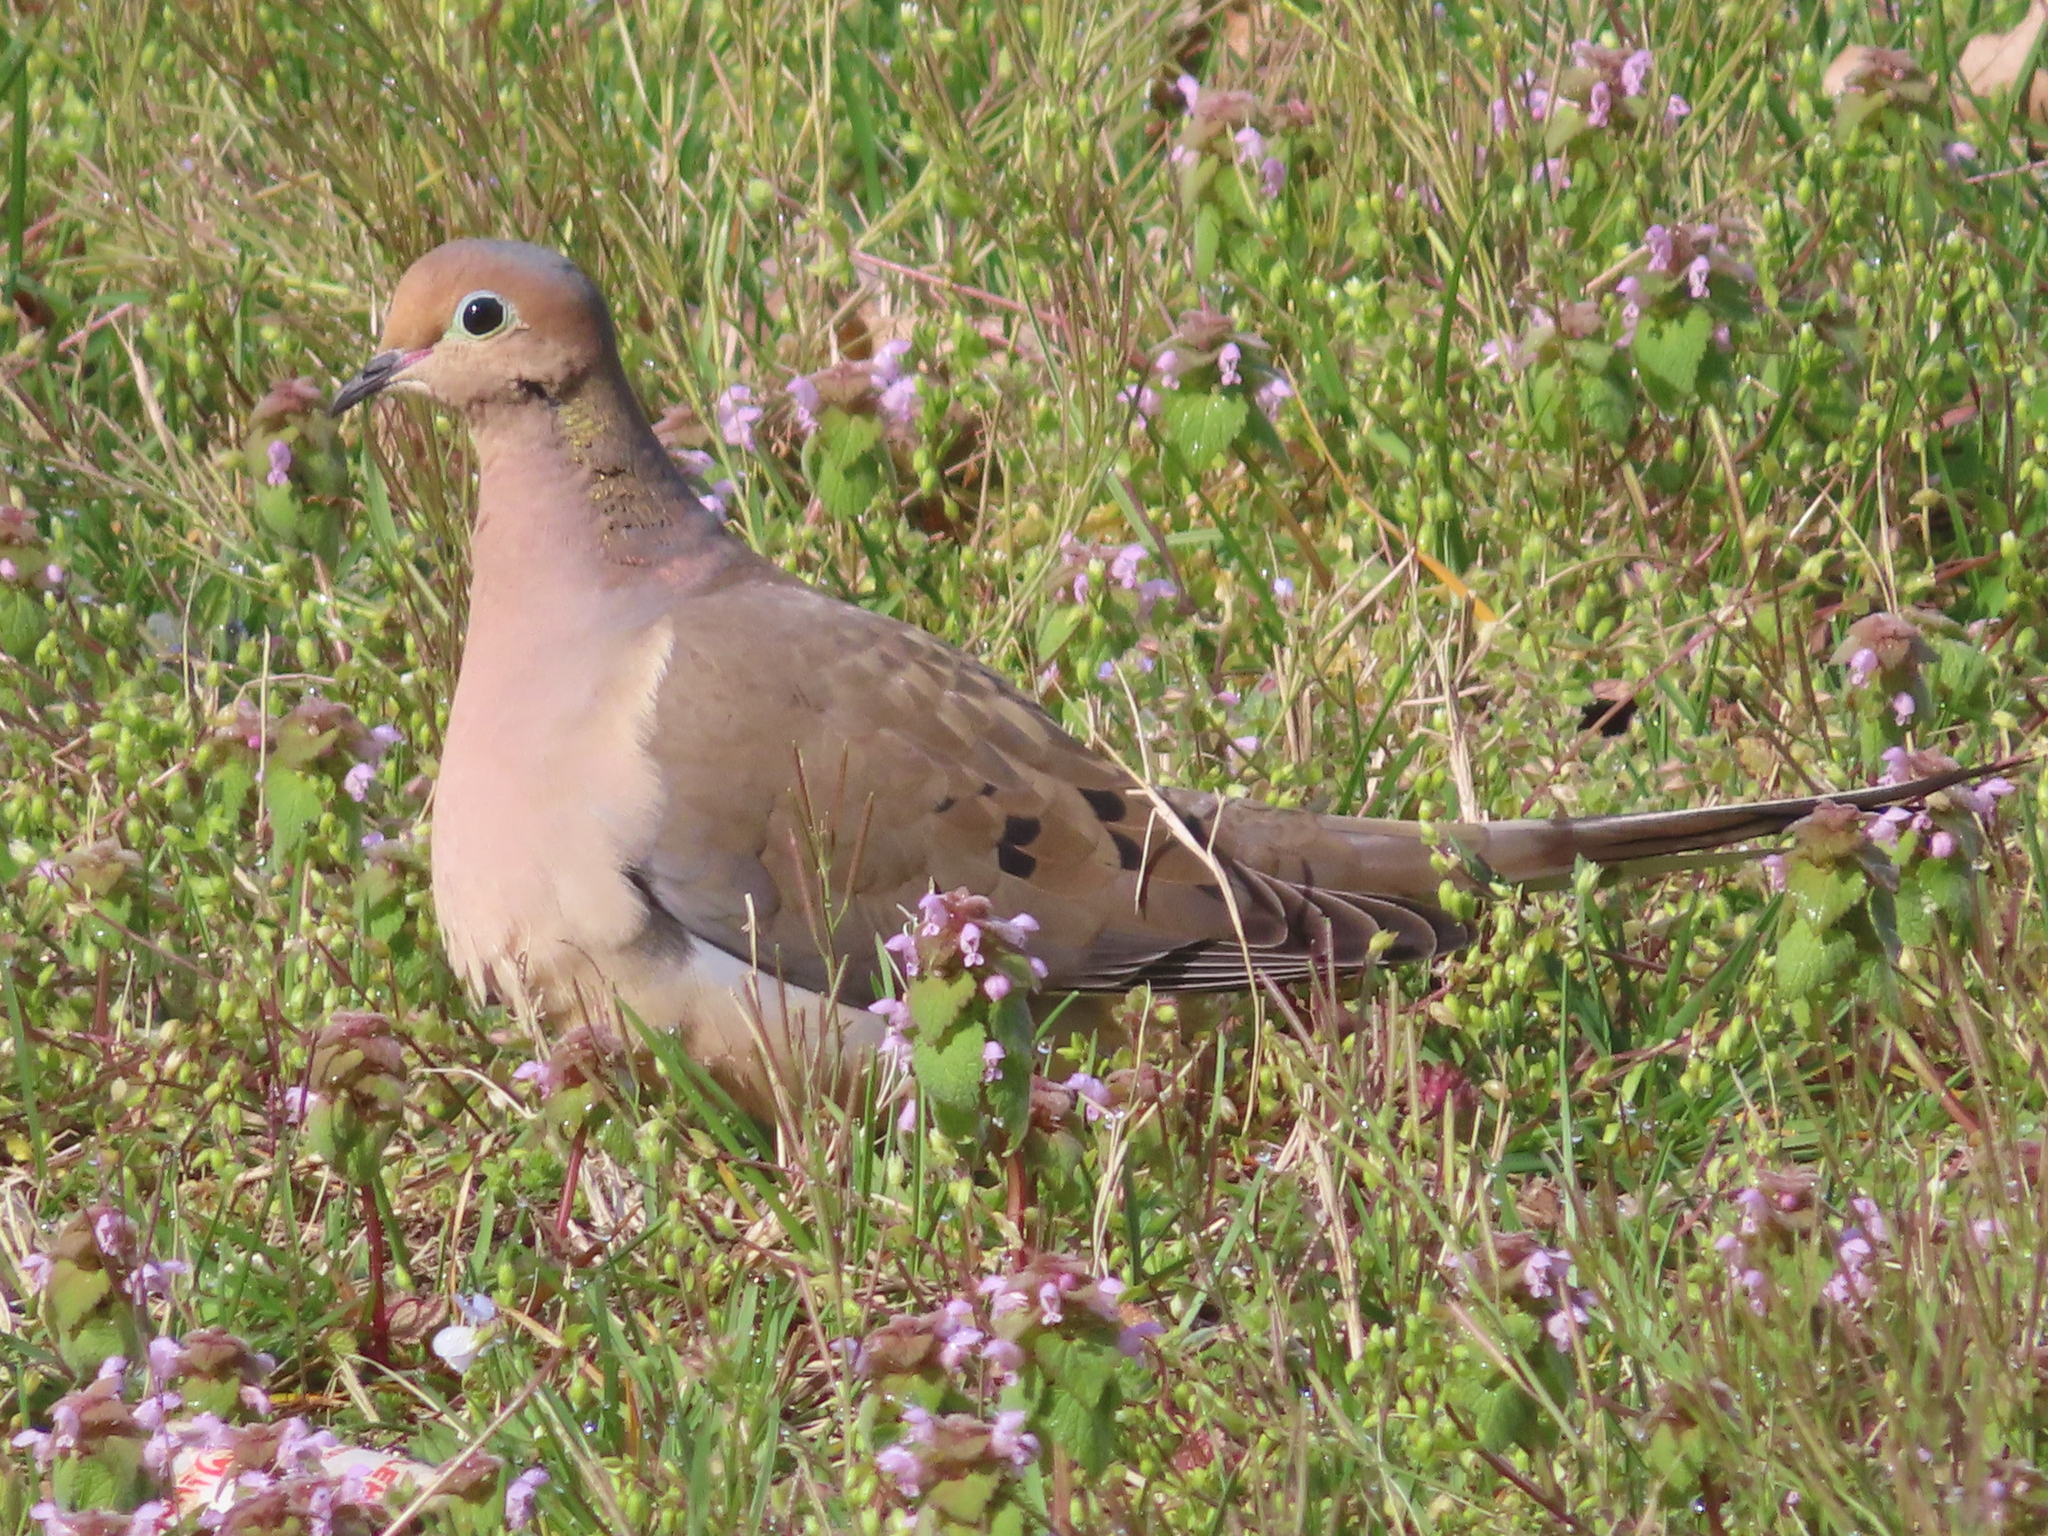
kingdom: Animalia
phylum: Chordata
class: Aves
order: Columbiformes
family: Columbidae
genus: Zenaida
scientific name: Zenaida macroura
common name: Mourning dove
